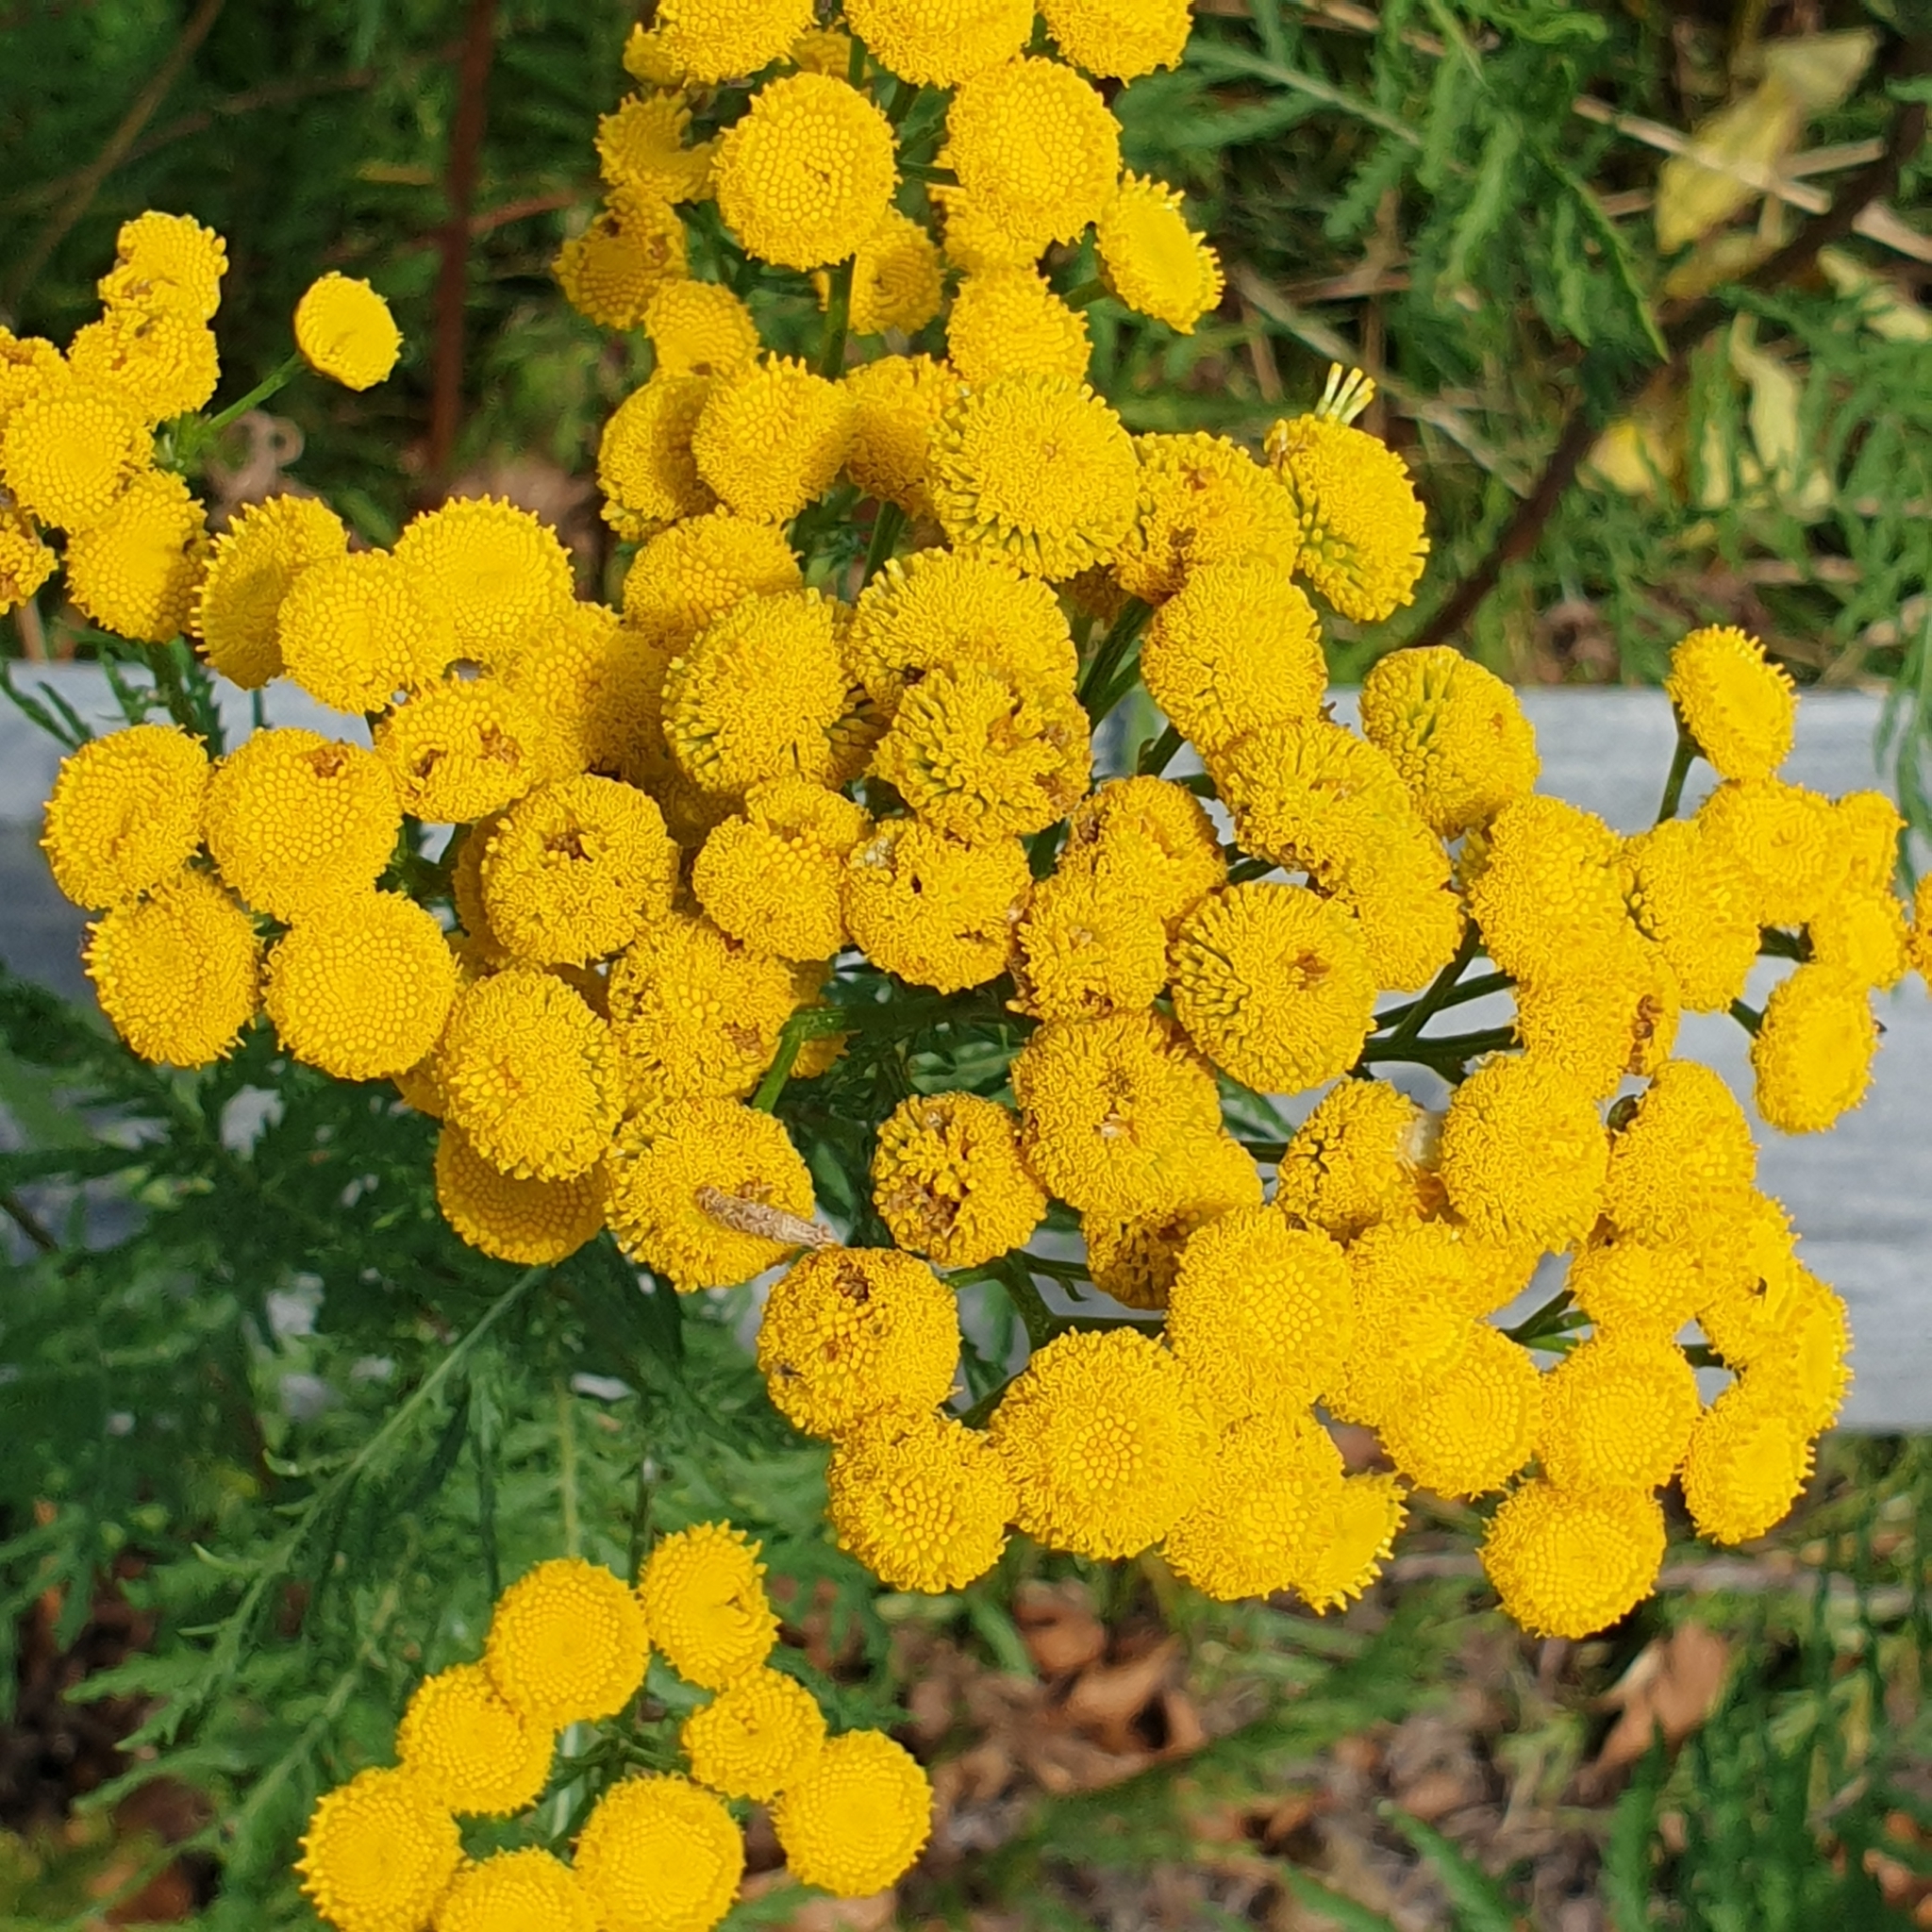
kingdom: Plantae
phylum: Tracheophyta
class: Magnoliopsida
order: Asterales
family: Asteraceae
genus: Tanacetum
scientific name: Tanacetum vulgare
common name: Common tansy
